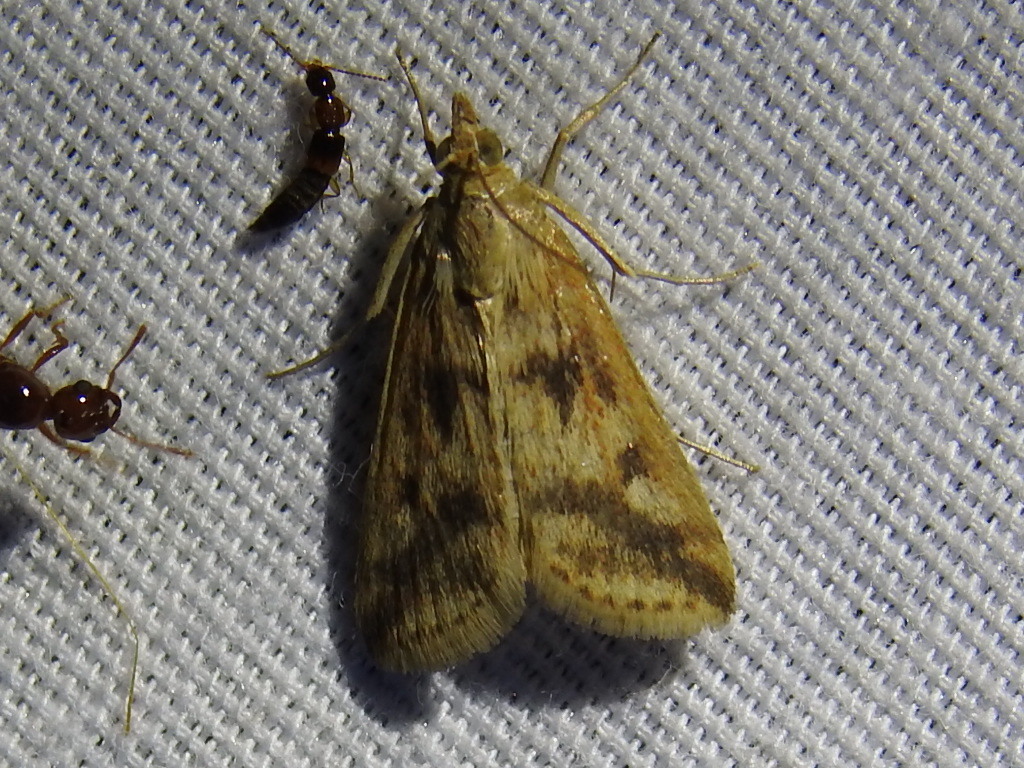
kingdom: Animalia
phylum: Arthropoda
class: Insecta
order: Lepidoptera
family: Crambidae
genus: Achyra
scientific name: Achyra bifidalis
